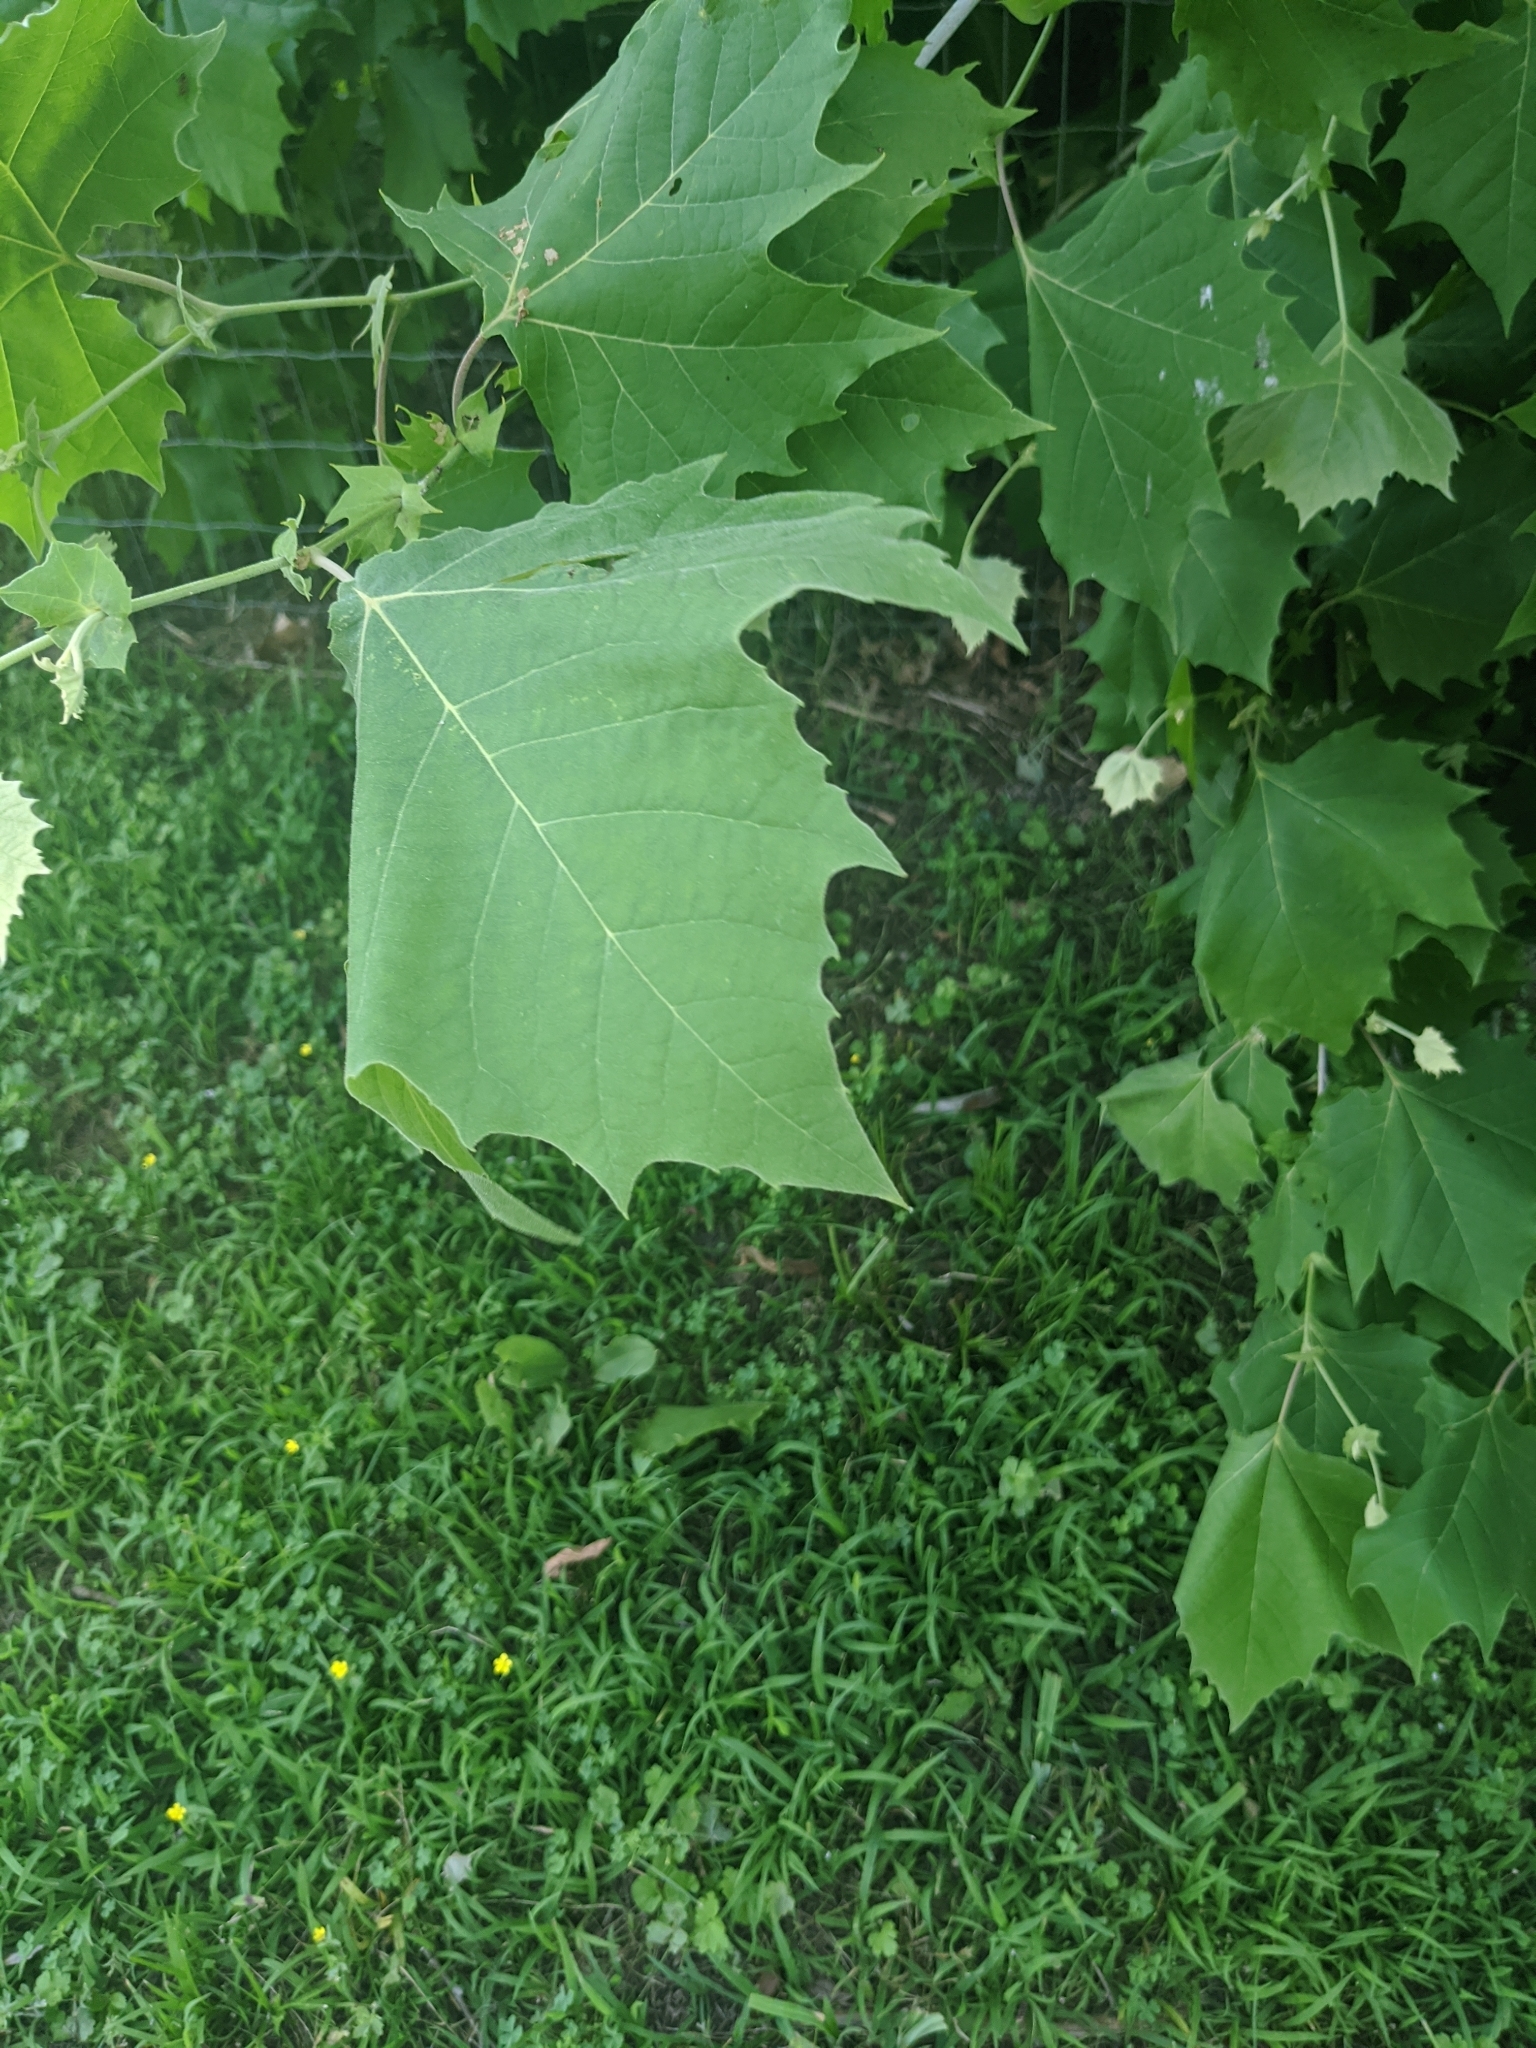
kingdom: Plantae
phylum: Tracheophyta
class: Magnoliopsida
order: Proteales
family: Platanaceae
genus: Platanus
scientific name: Platanus occidentalis
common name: American sycamore
